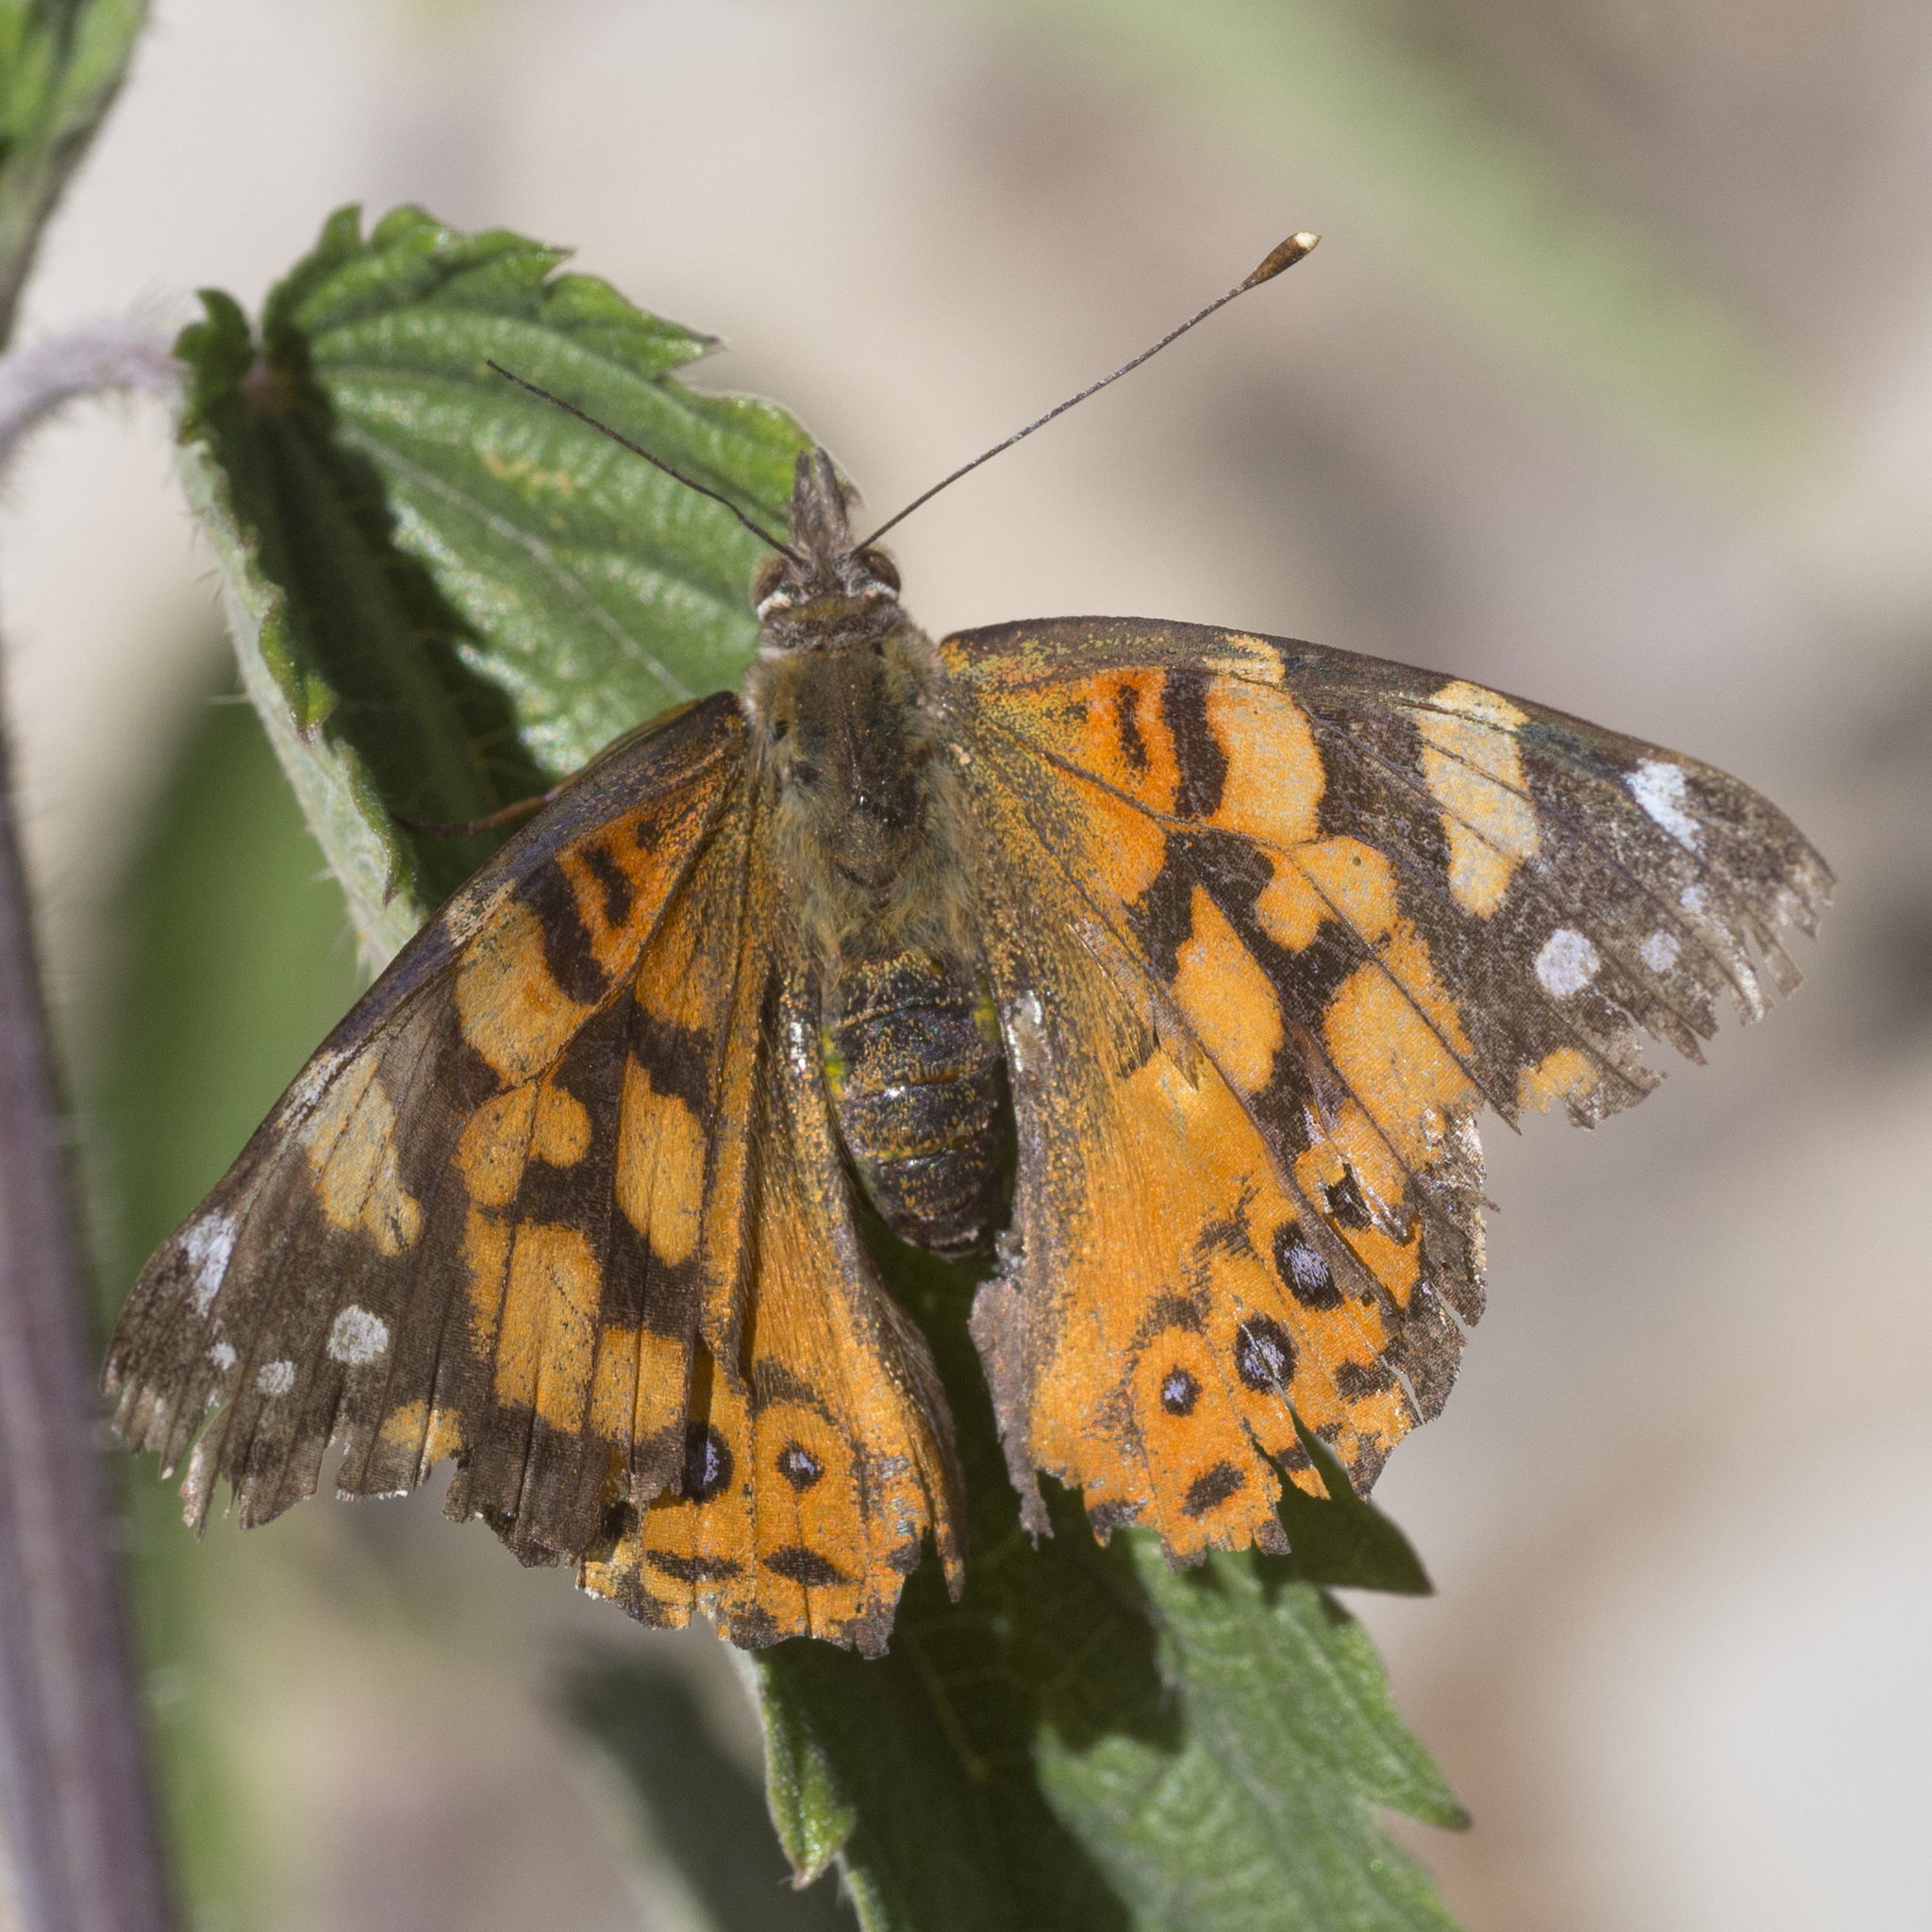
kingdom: Animalia
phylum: Arthropoda
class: Insecta
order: Lepidoptera
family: Nymphalidae
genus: Vanessa
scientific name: Vanessa annabella
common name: West coast lady
